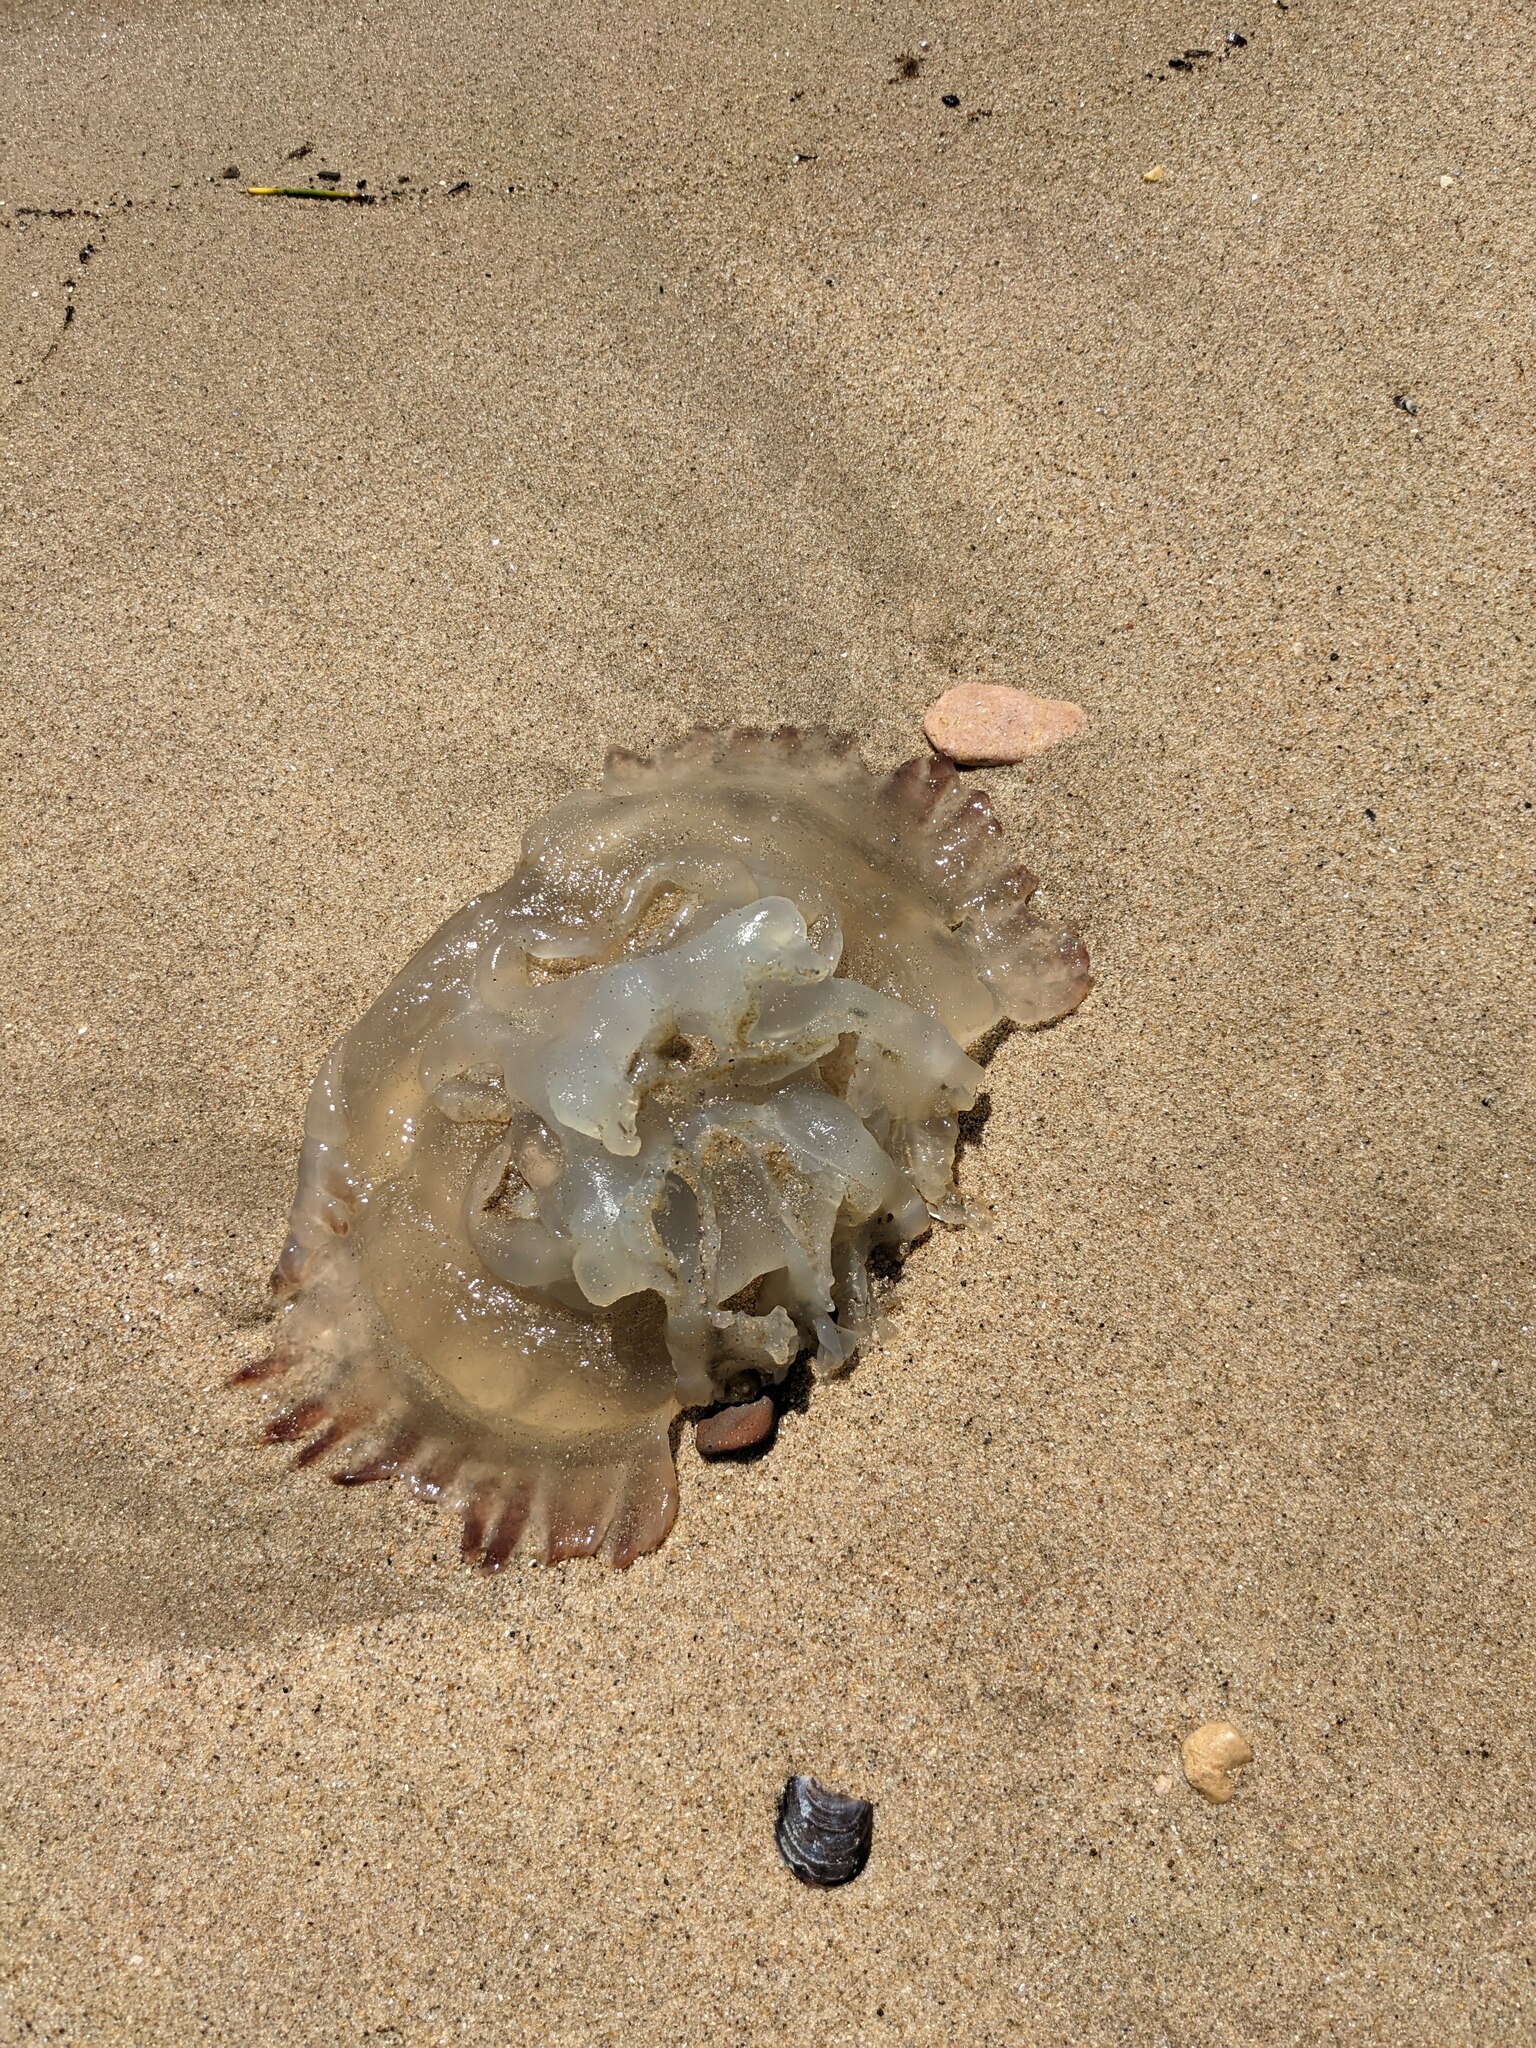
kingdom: Animalia
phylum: Cnidaria
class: Scyphozoa
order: Rhizostomeae
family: Catostylidae
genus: Catostylus
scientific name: Catostylus tagi
